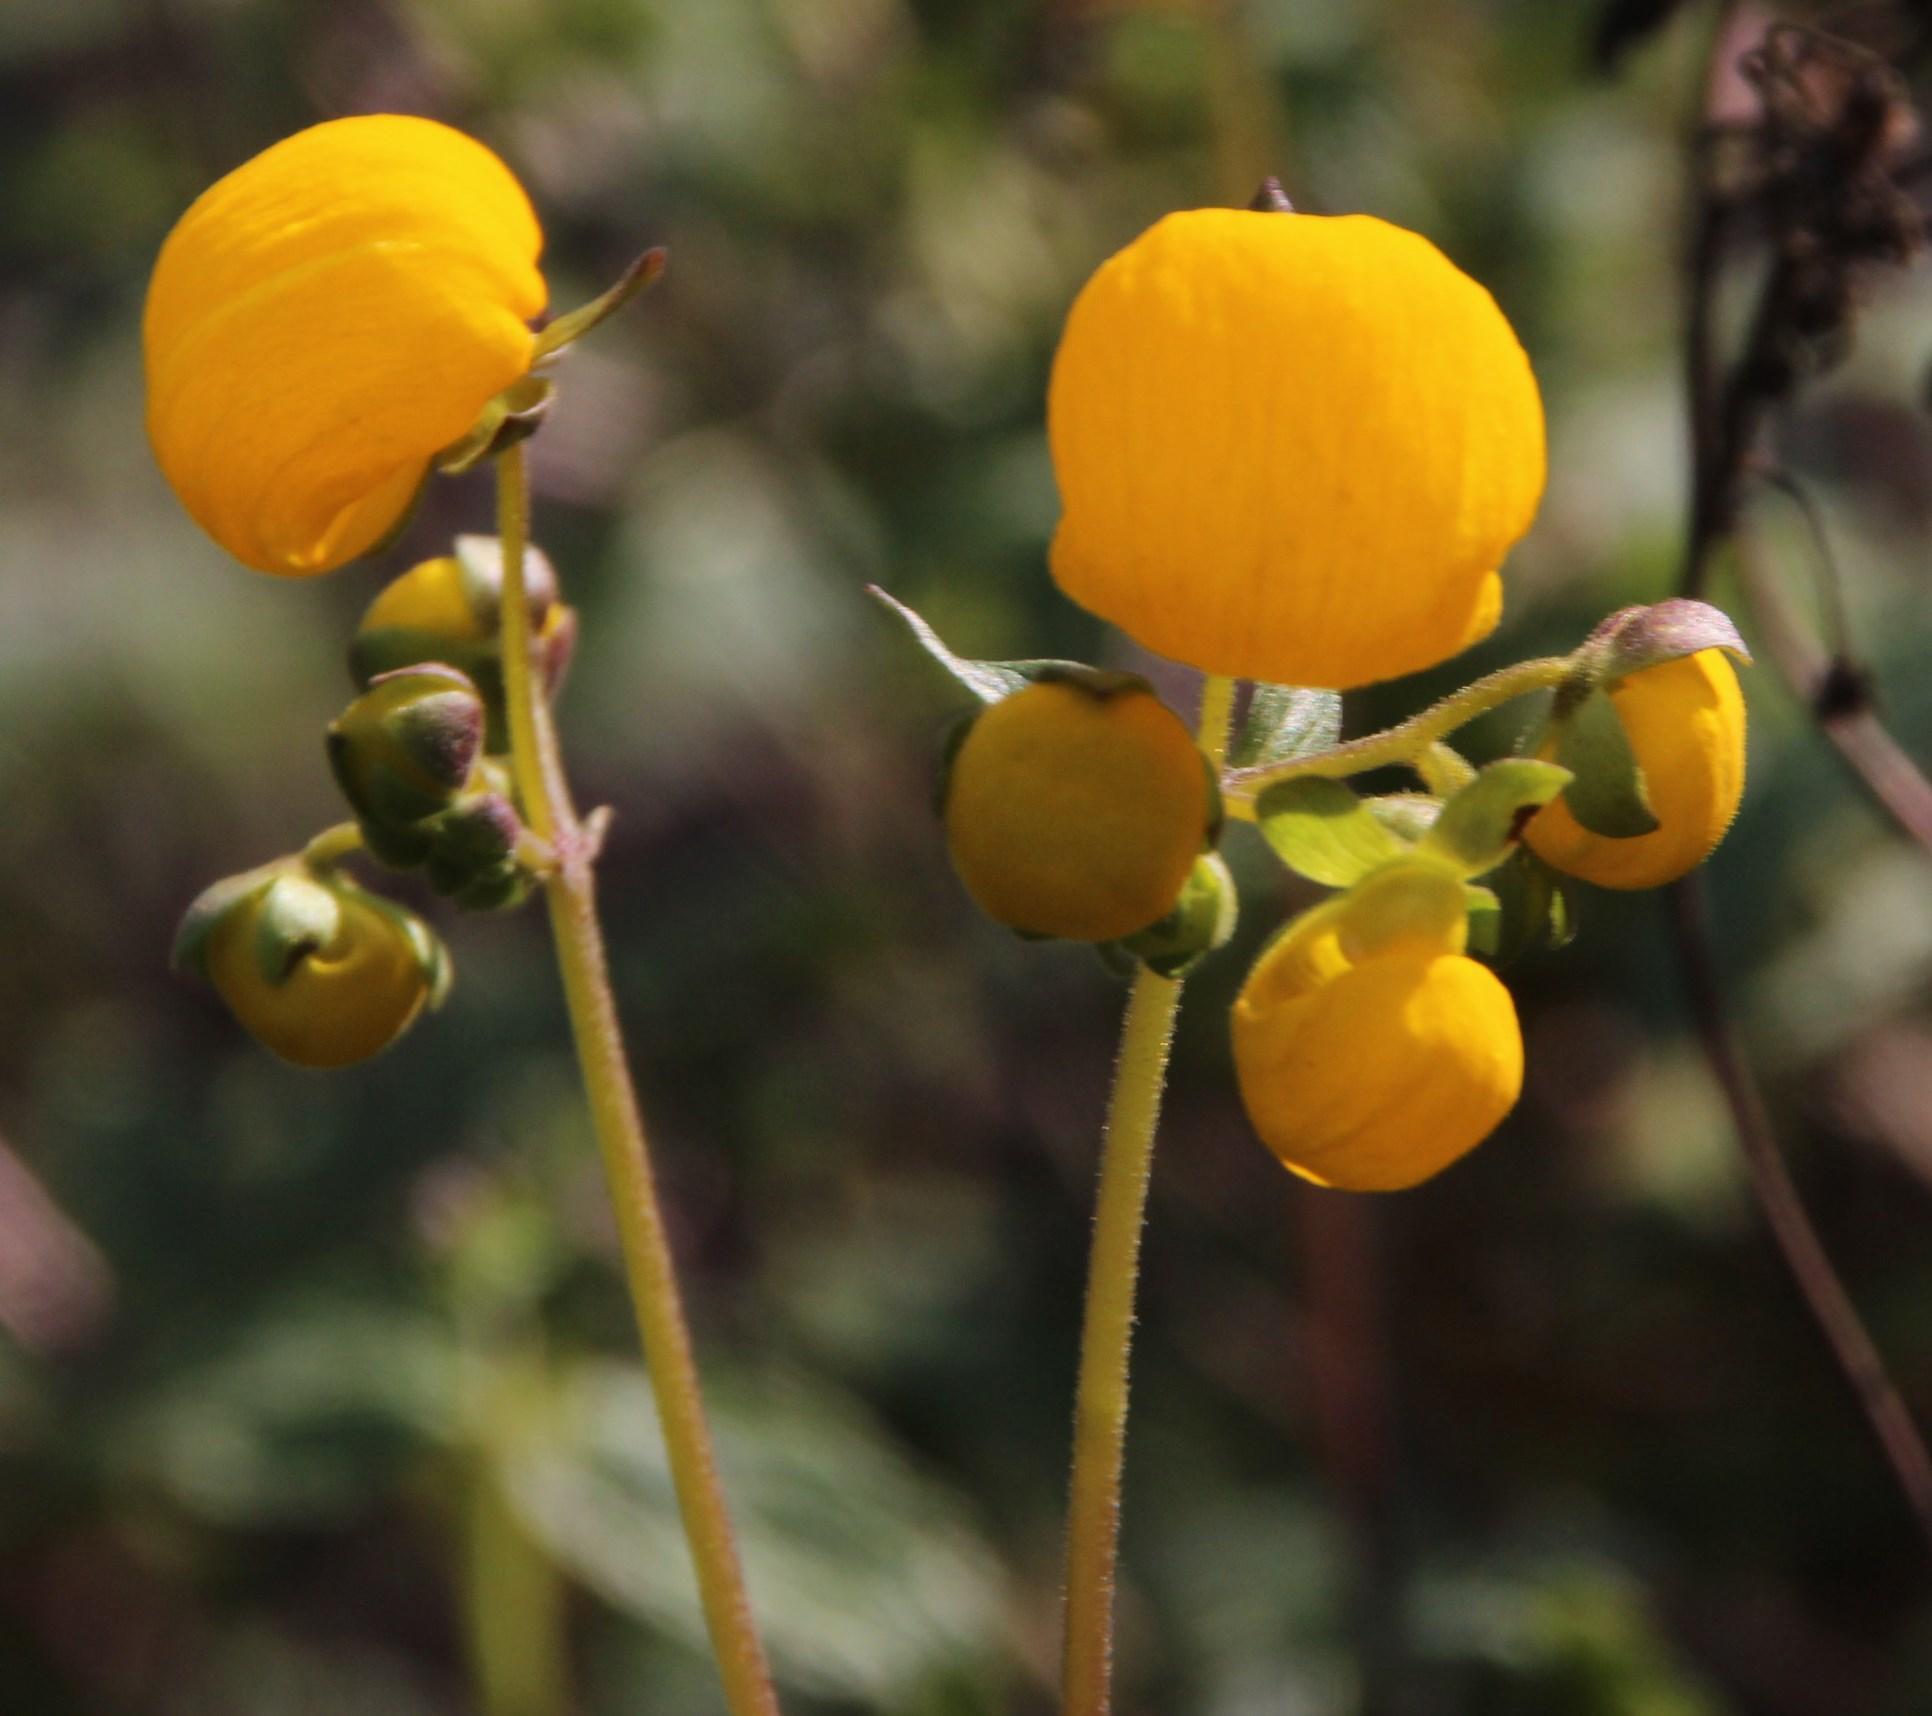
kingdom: Plantae
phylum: Tracheophyta
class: Magnoliopsida
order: Lamiales
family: Calceolariaceae
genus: Calceolaria
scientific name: Calceolaria ascendens
